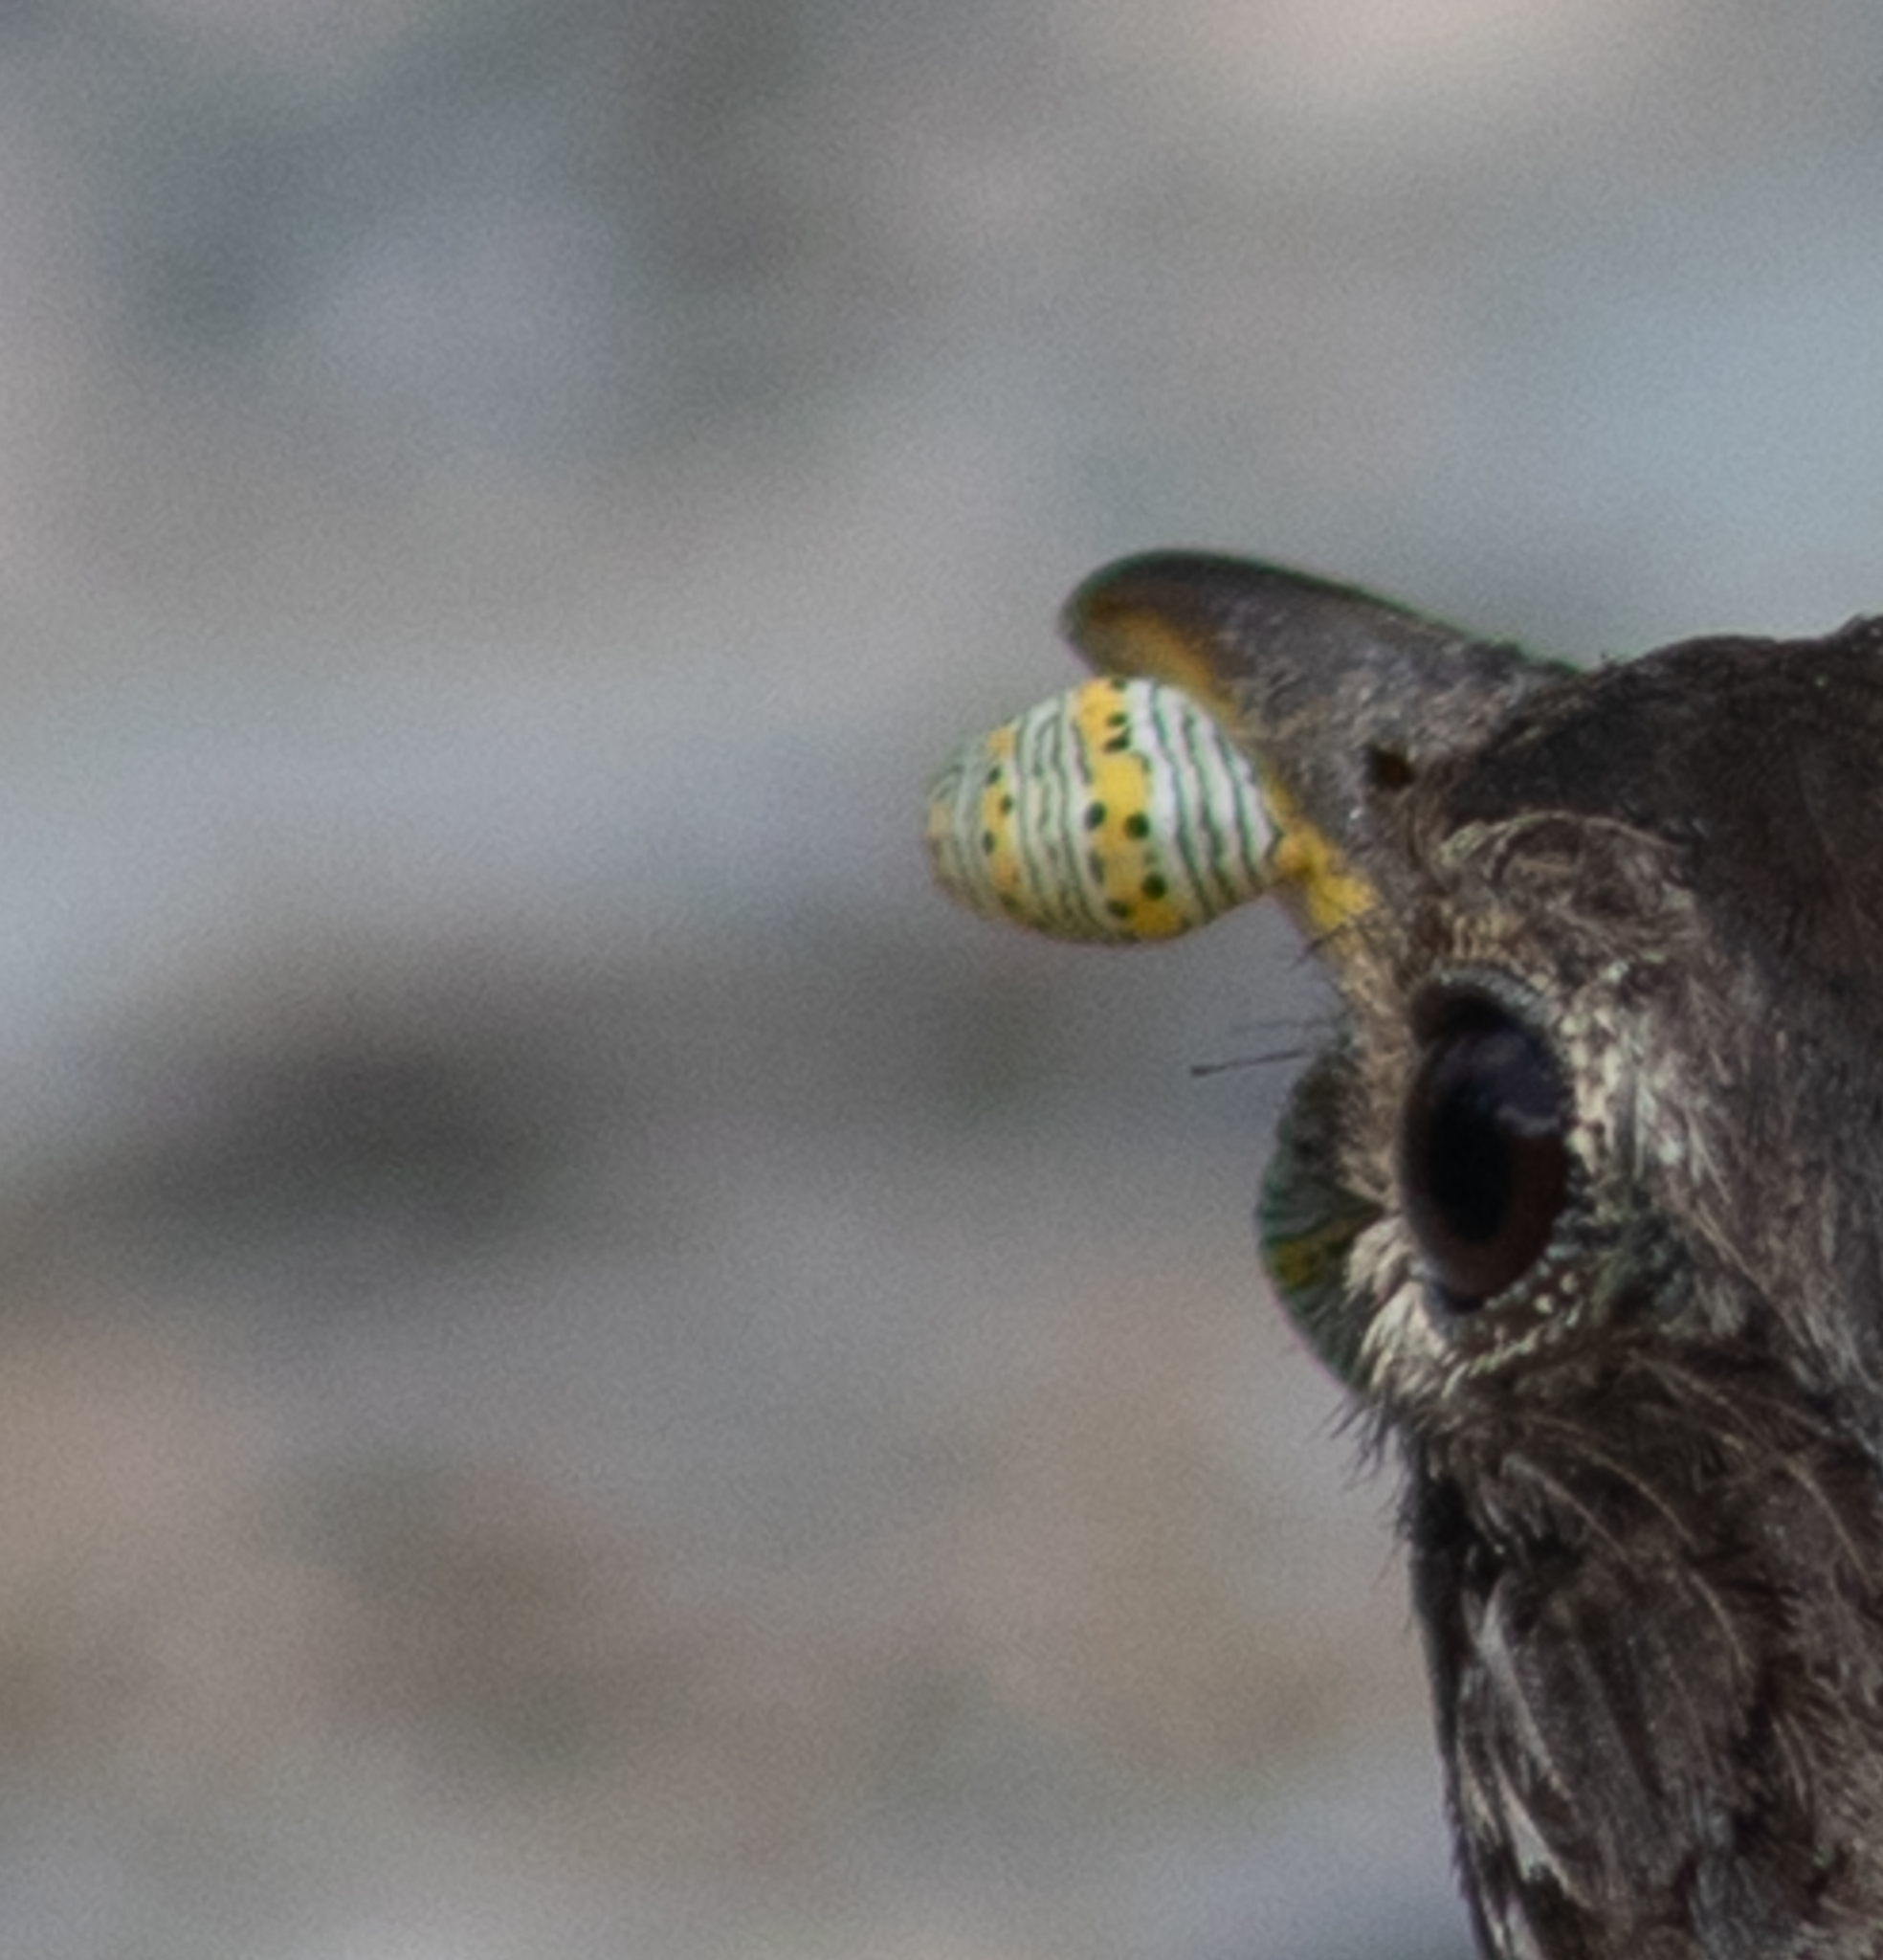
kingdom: Animalia
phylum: Arthropoda
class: Insecta
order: Lepidoptera
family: Noctuidae
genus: Eudryas
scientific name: Eudryas unio
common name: Pearly wood-nymph
